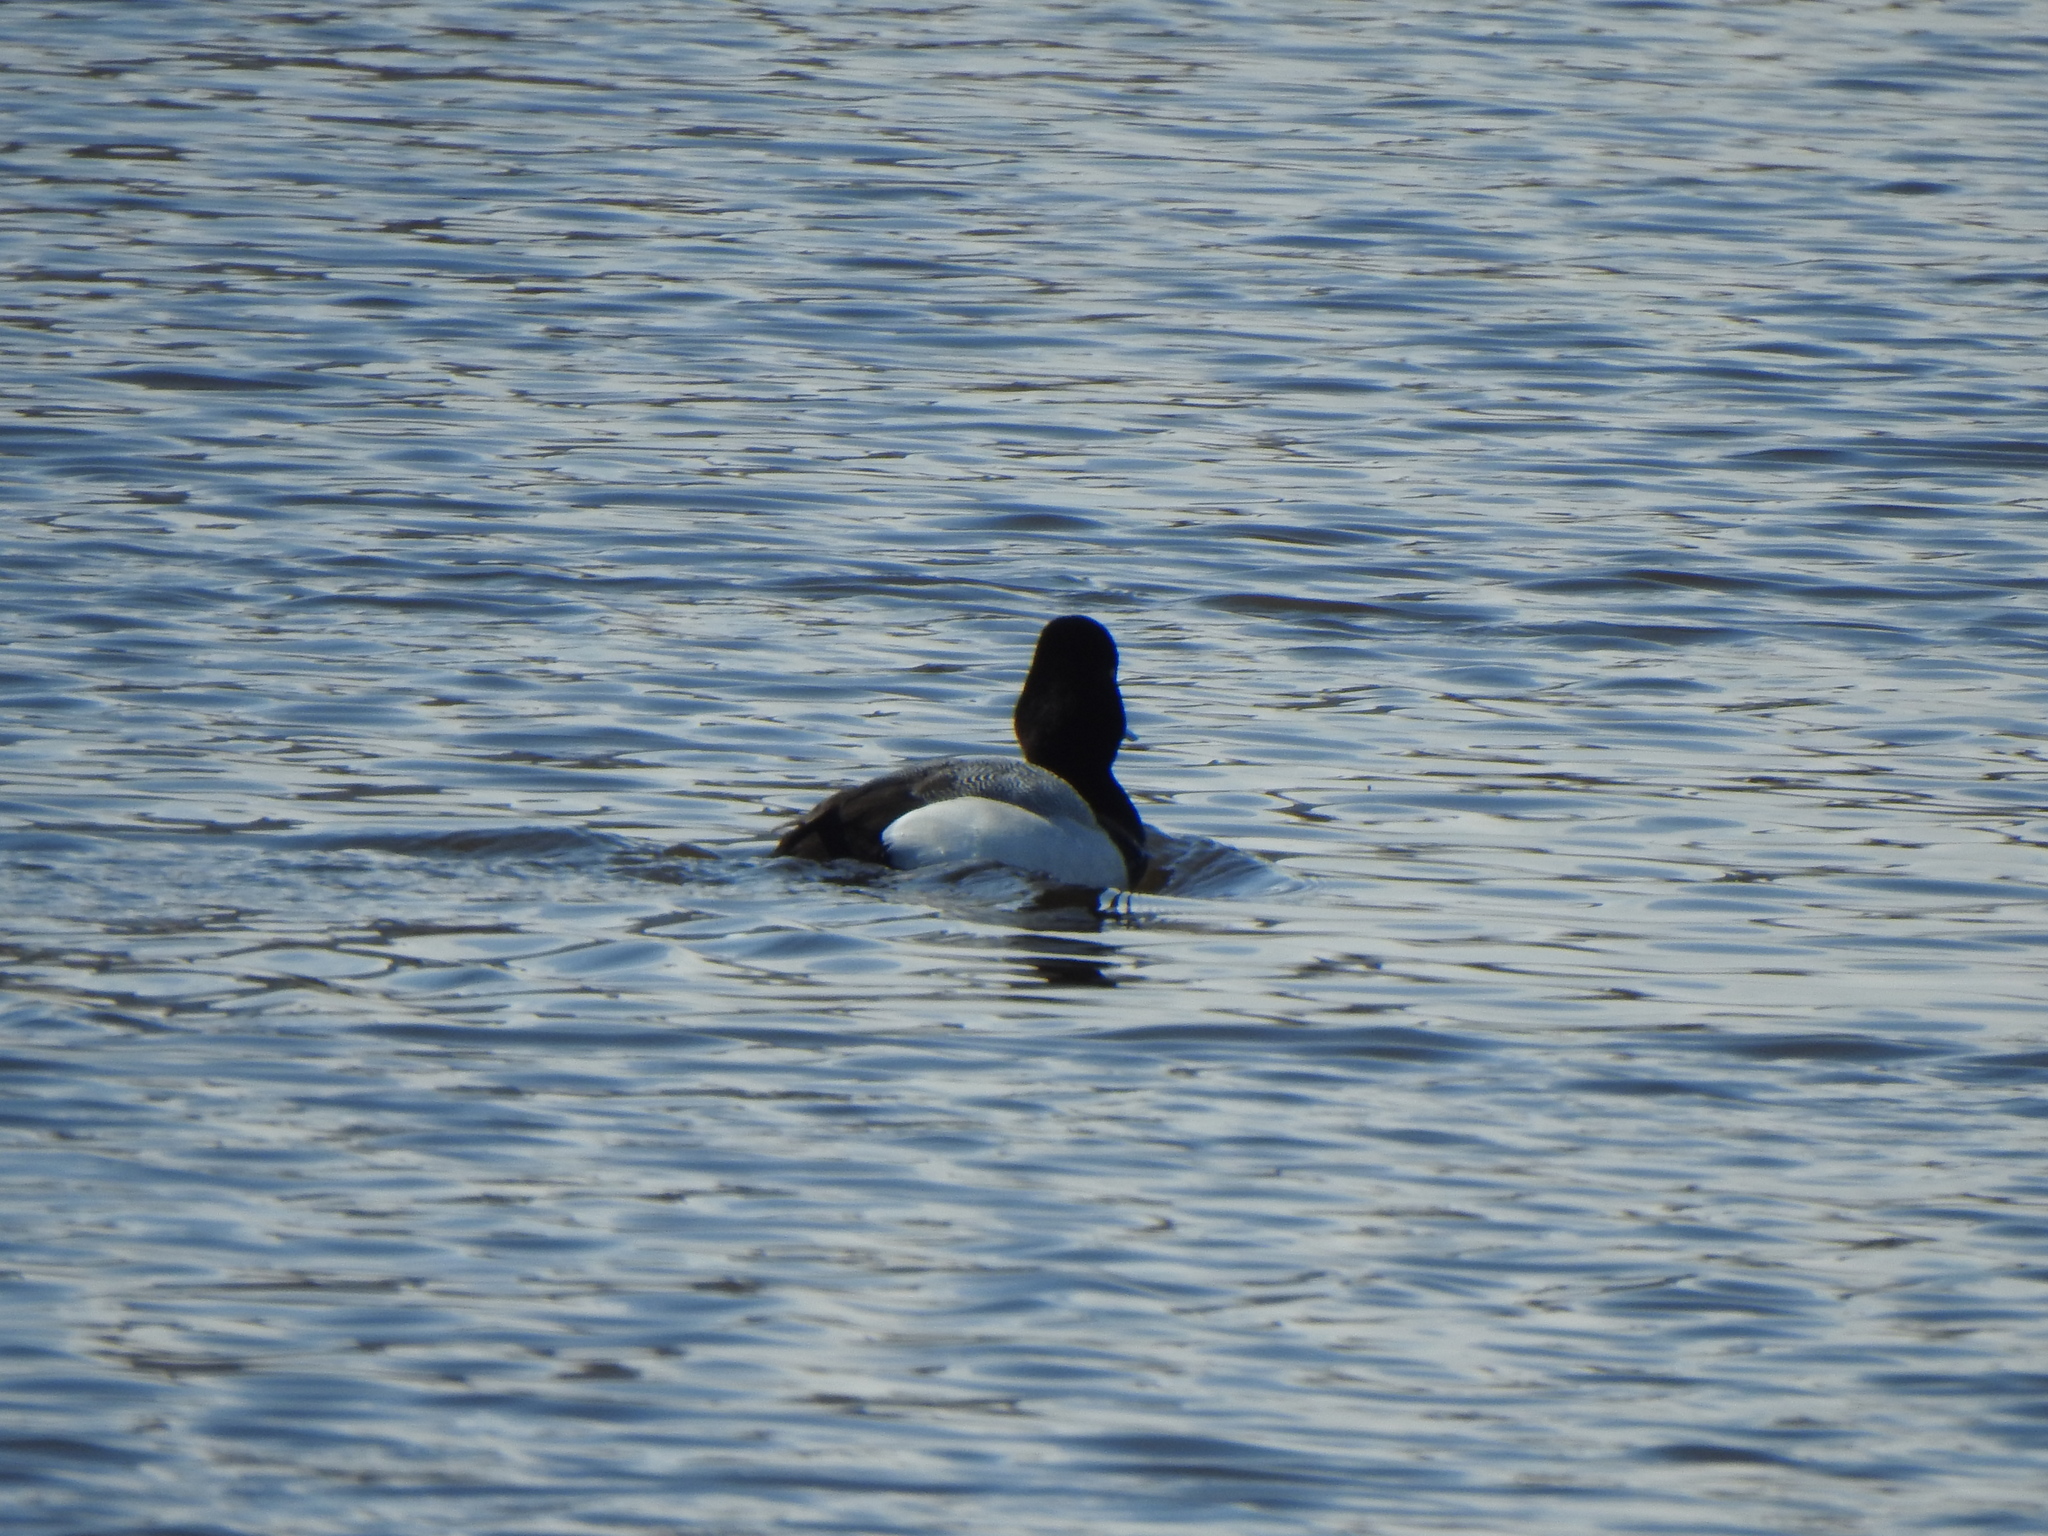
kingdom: Animalia
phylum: Chordata
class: Aves
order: Anseriformes
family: Anatidae
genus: Aythya
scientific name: Aythya affinis
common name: Lesser scaup
